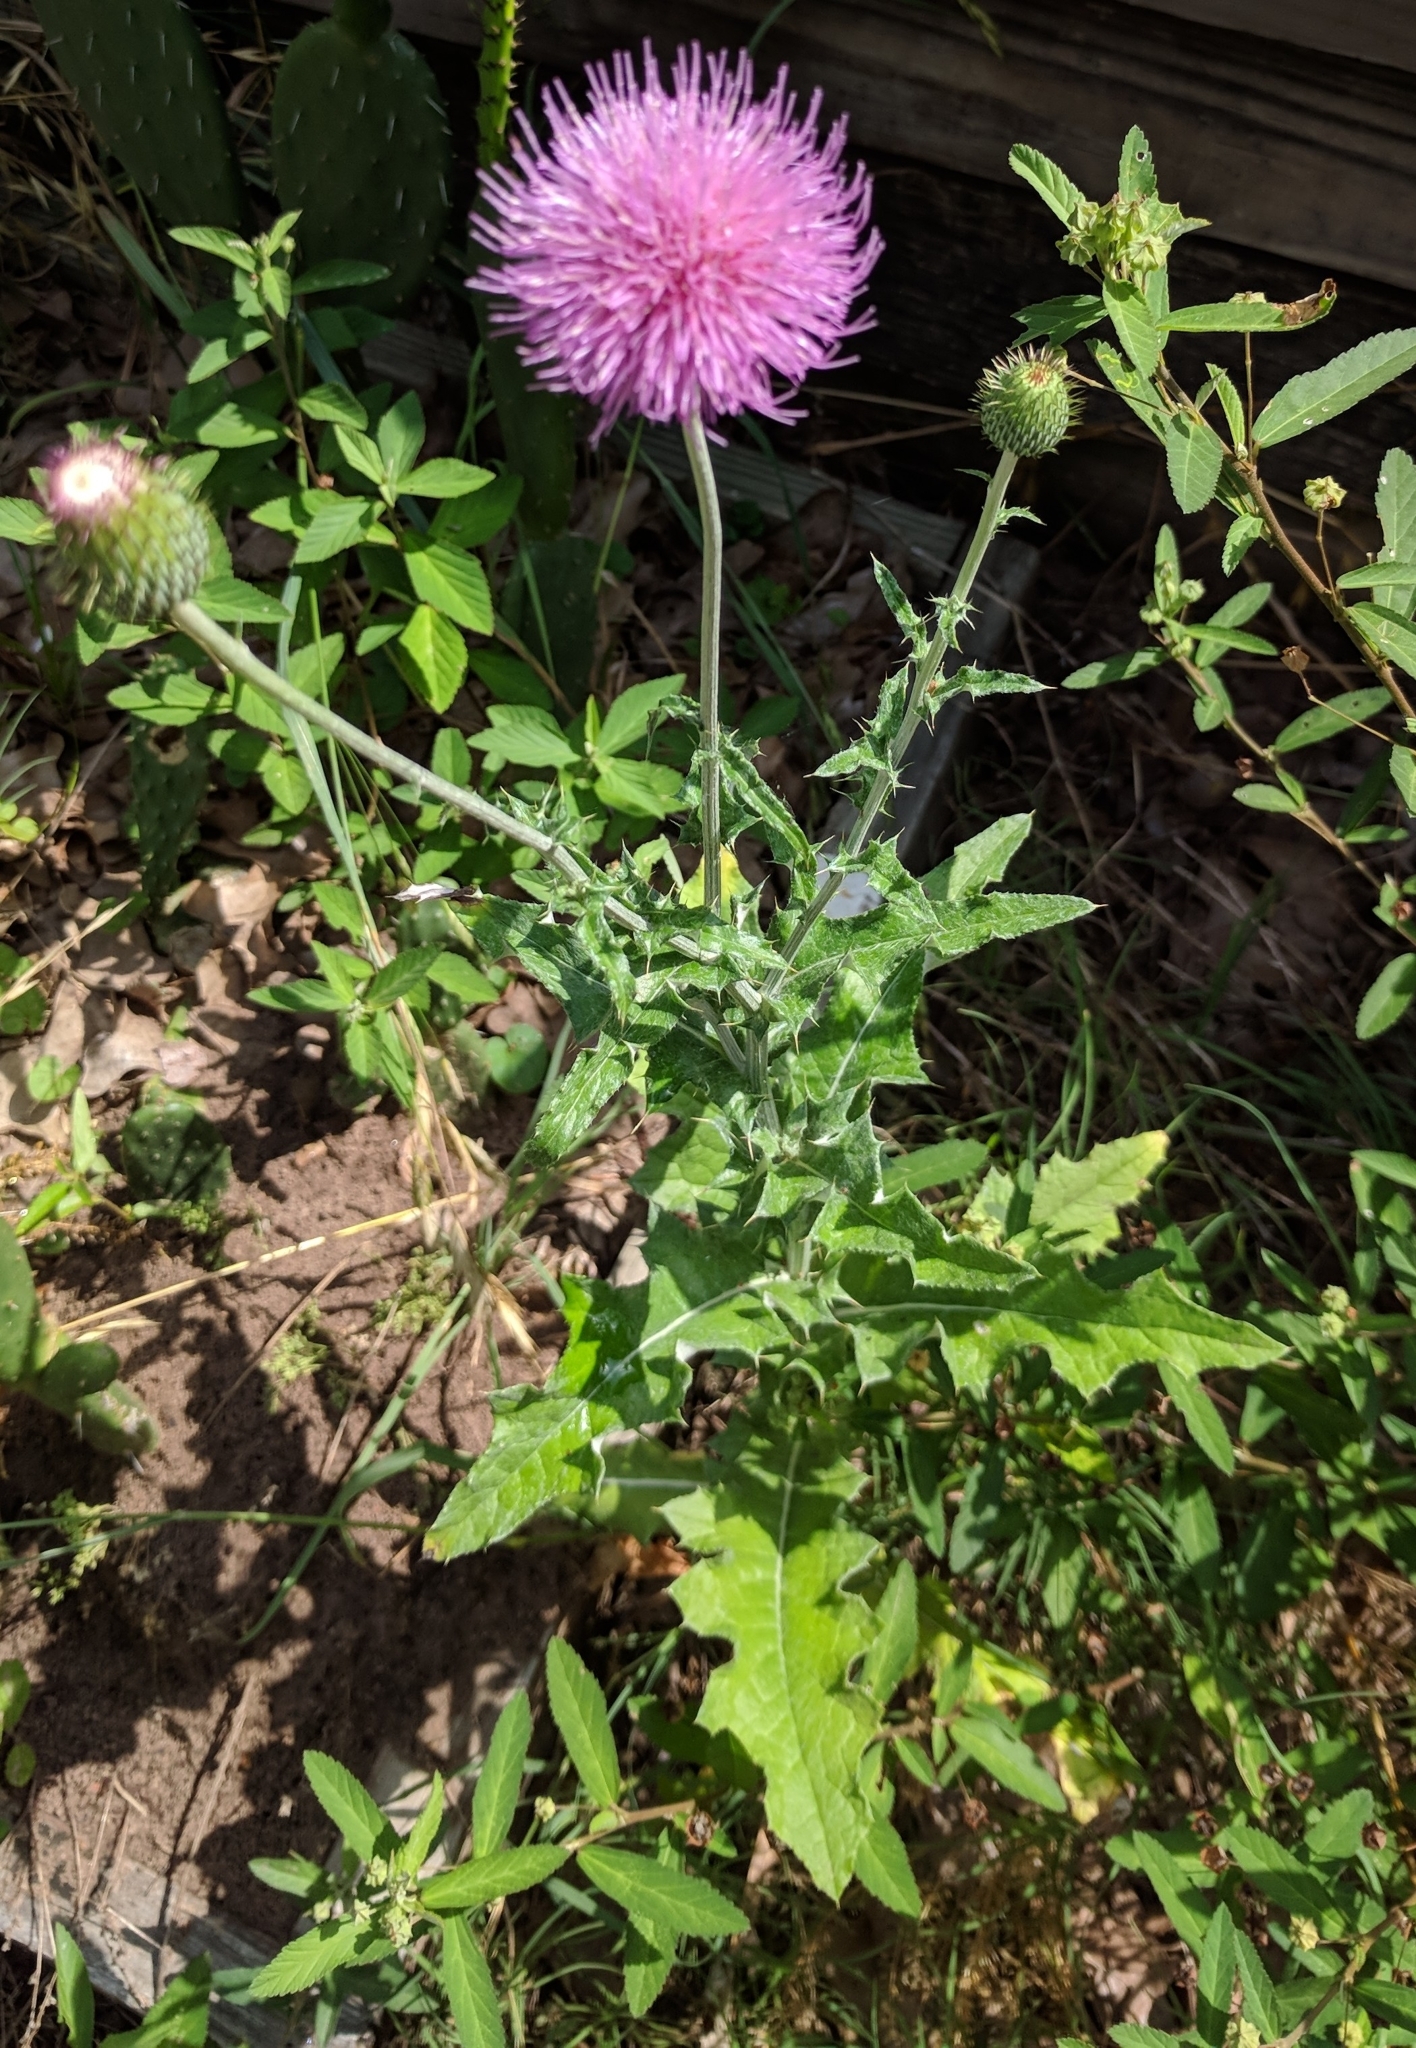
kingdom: Plantae
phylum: Tracheophyta
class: Magnoliopsida
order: Asterales
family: Asteraceae
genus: Cirsium
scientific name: Cirsium texanum
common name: Texas purple thistle
